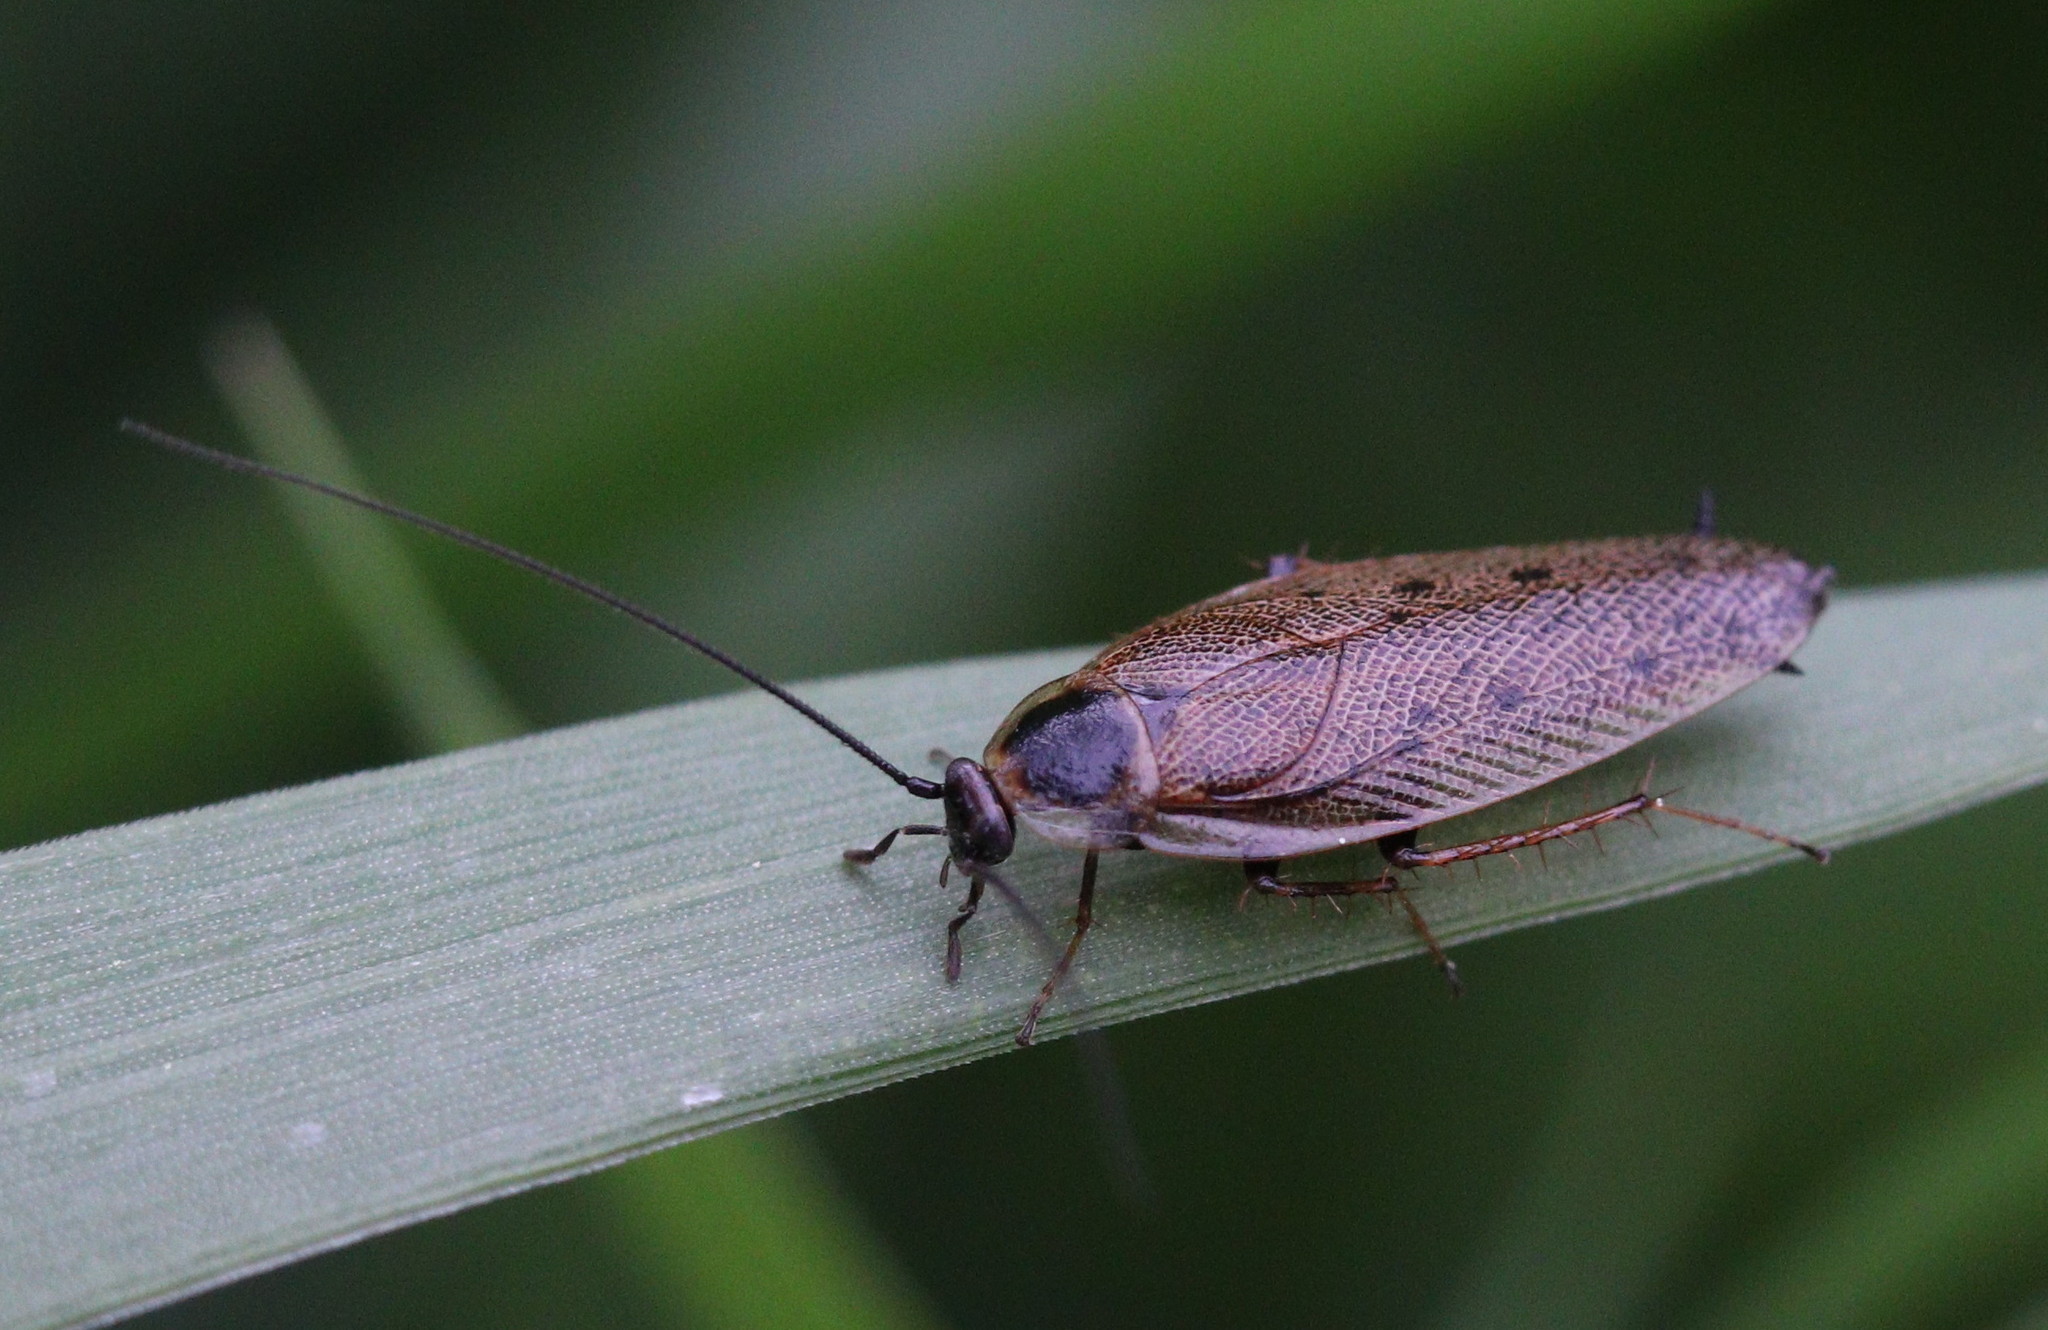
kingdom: Animalia
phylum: Arthropoda
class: Insecta
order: Blattodea
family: Ectobiidae
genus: Ectobius
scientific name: Ectobius lapponicus
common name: Dusky cockroach
